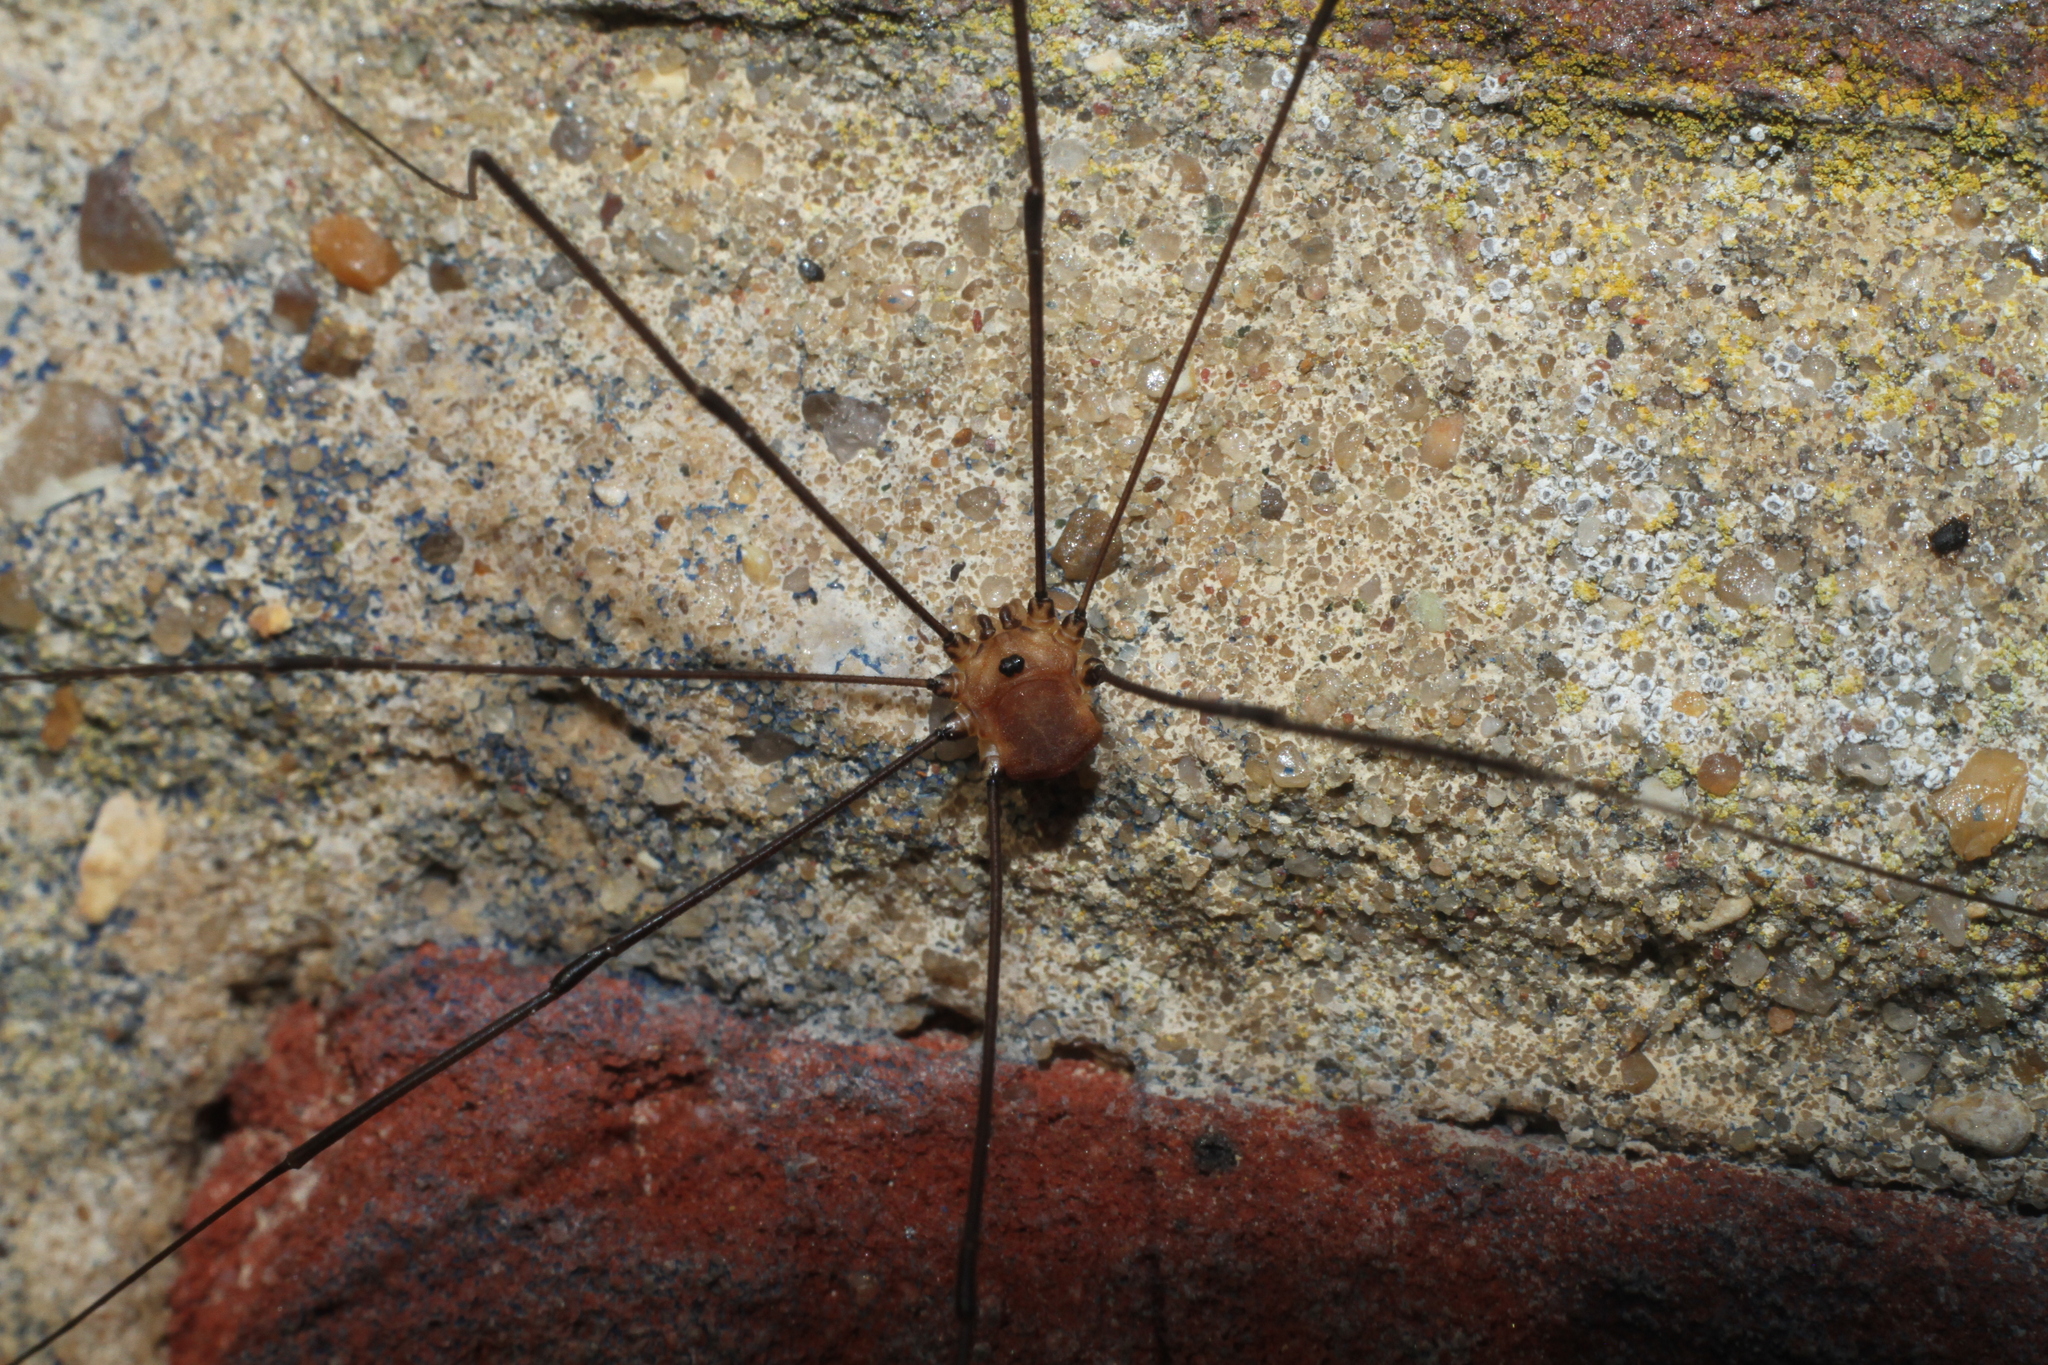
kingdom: Animalia
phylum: Arthropoda
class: Arachnida
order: Opiliones
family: Sclerosomatidae
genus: Leiobunum
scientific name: Leiobunum rotundum
